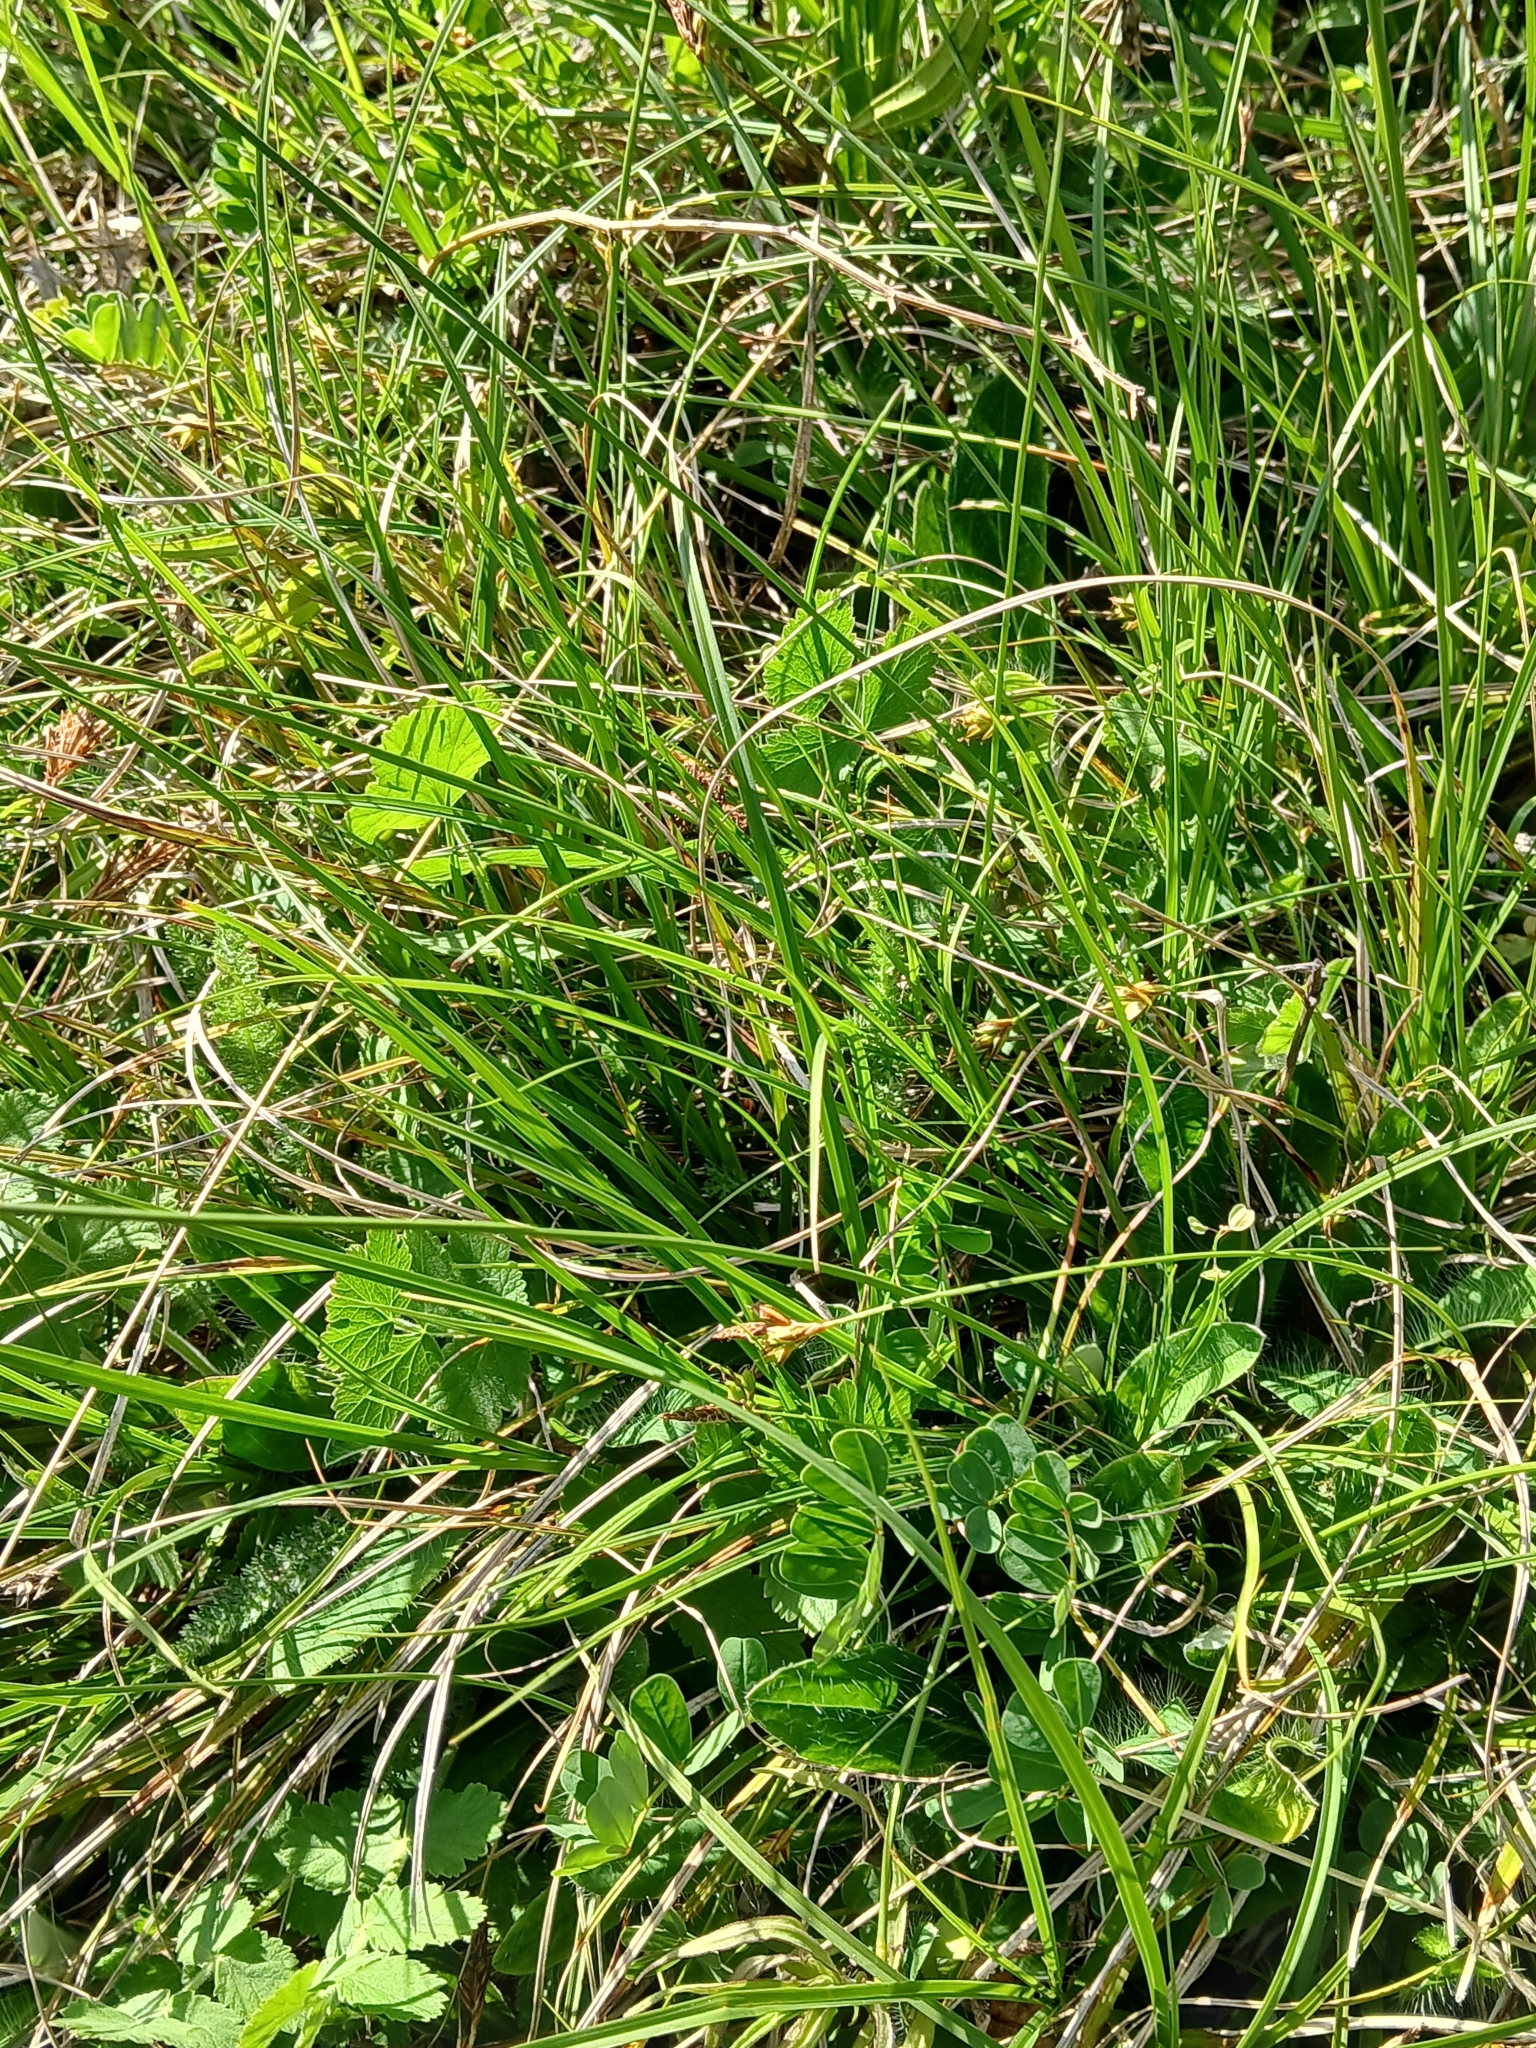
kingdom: Plantae
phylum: Tracheophyta
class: Liliopsida
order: Poales
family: Cyperaceae
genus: Carex
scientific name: Carex halleriana
